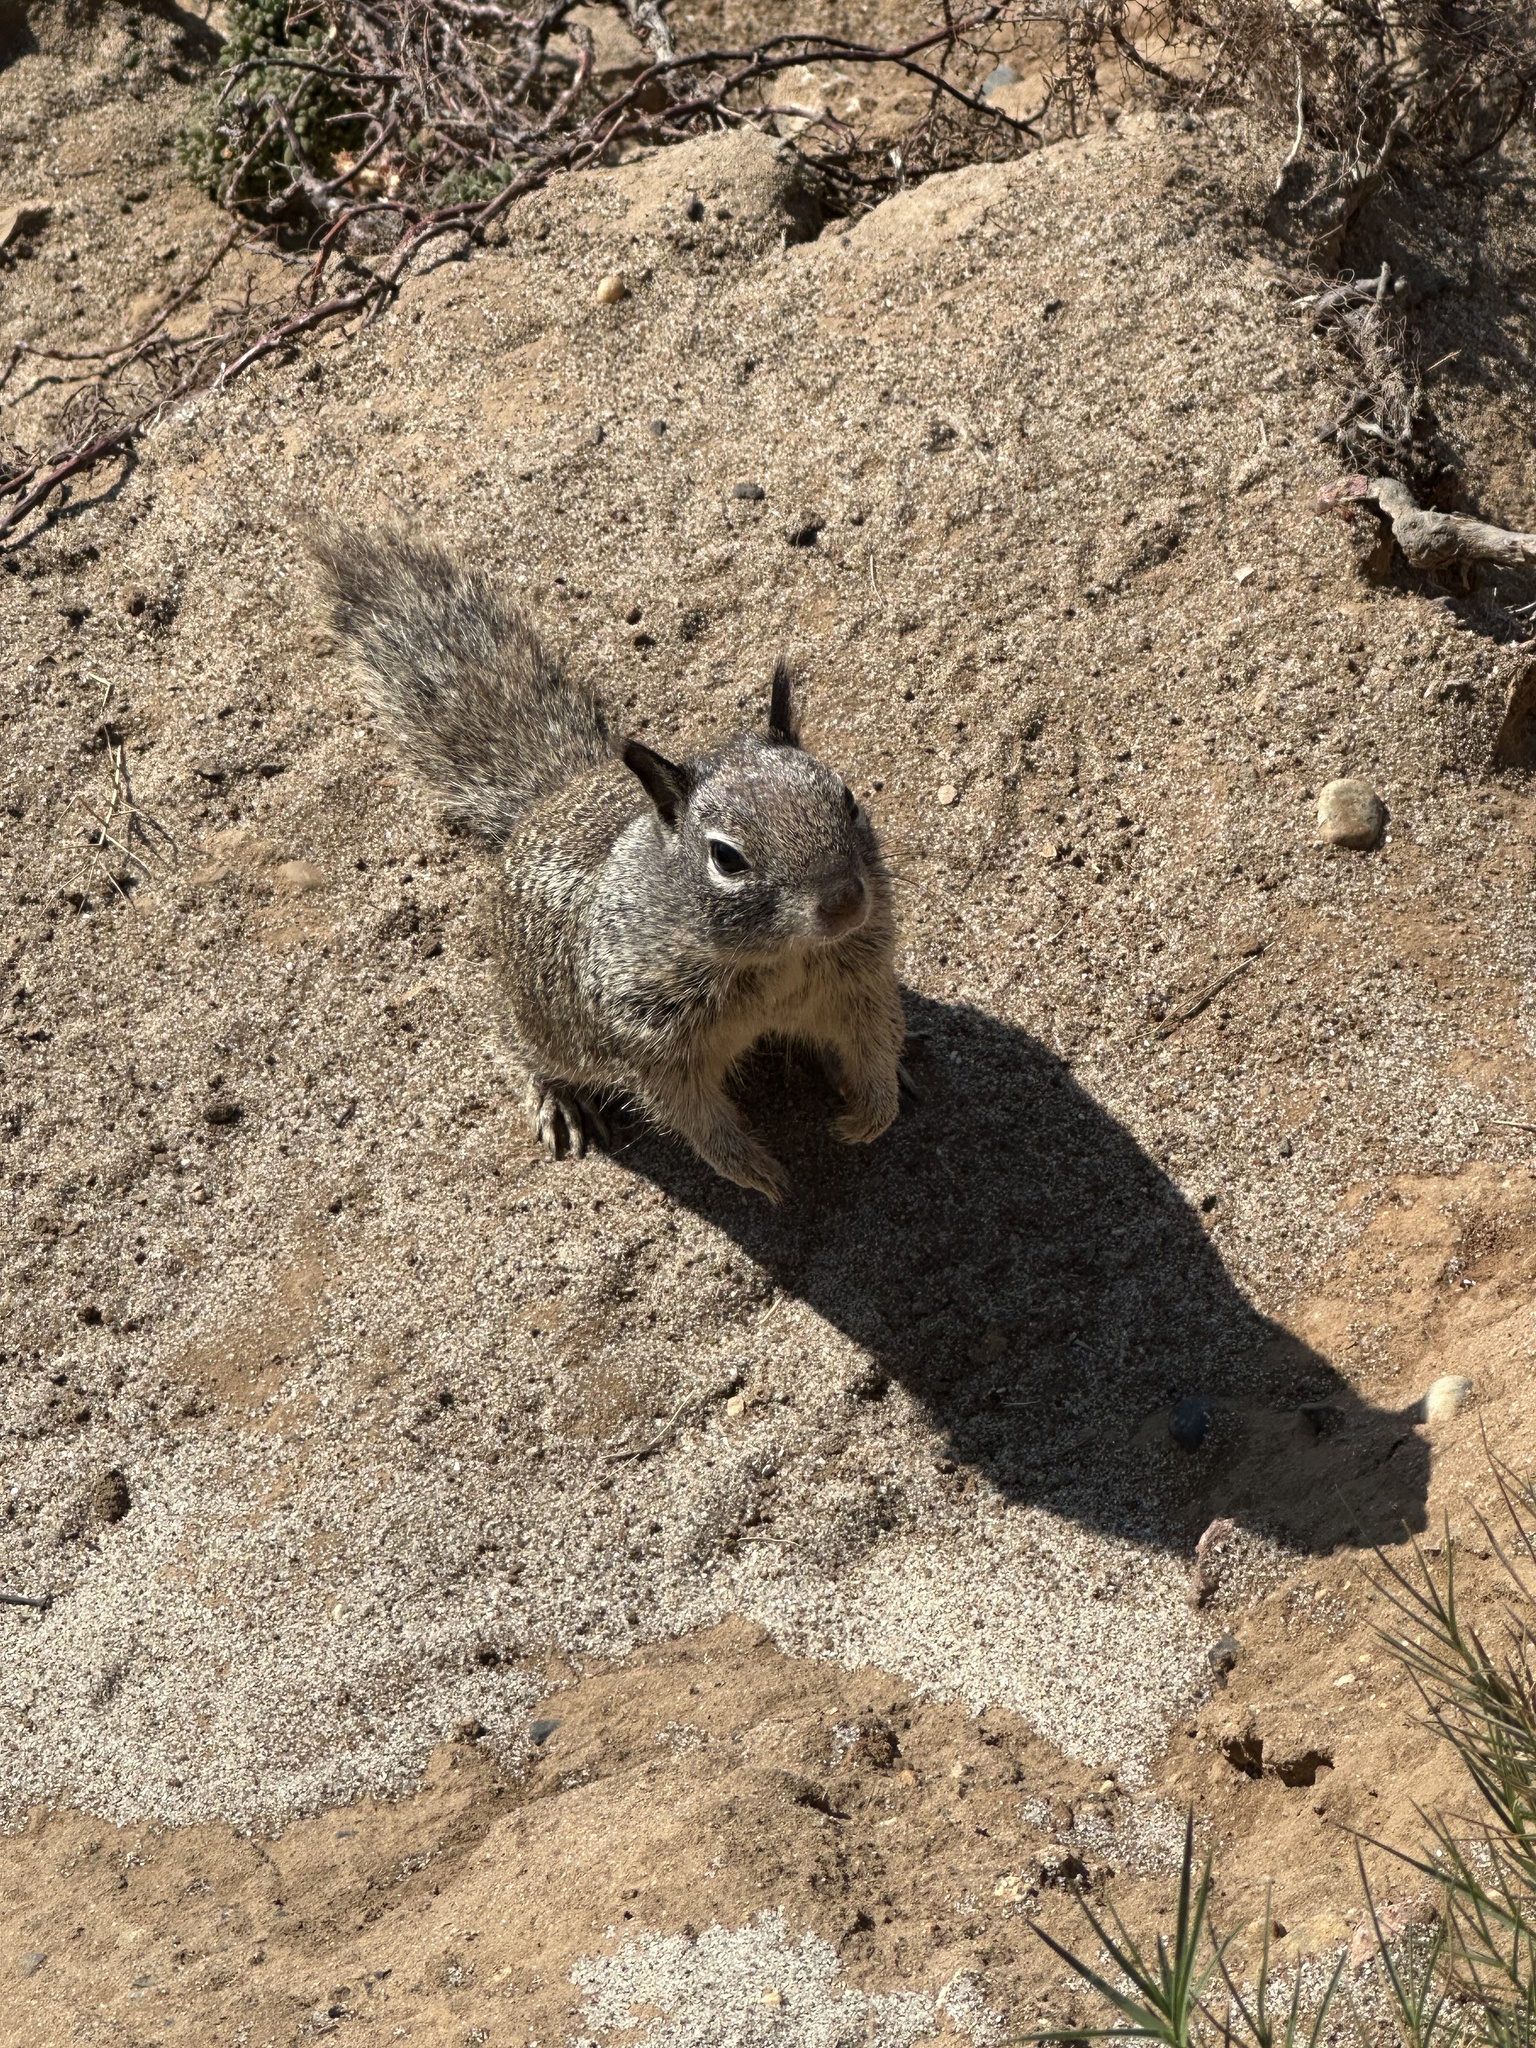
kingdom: Animalia
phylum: Chordata
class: Mammalia
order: Rodentia
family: Sciuridae
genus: Otospermophilus
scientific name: Otospermophilus beecheyi
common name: California ground squirrel
